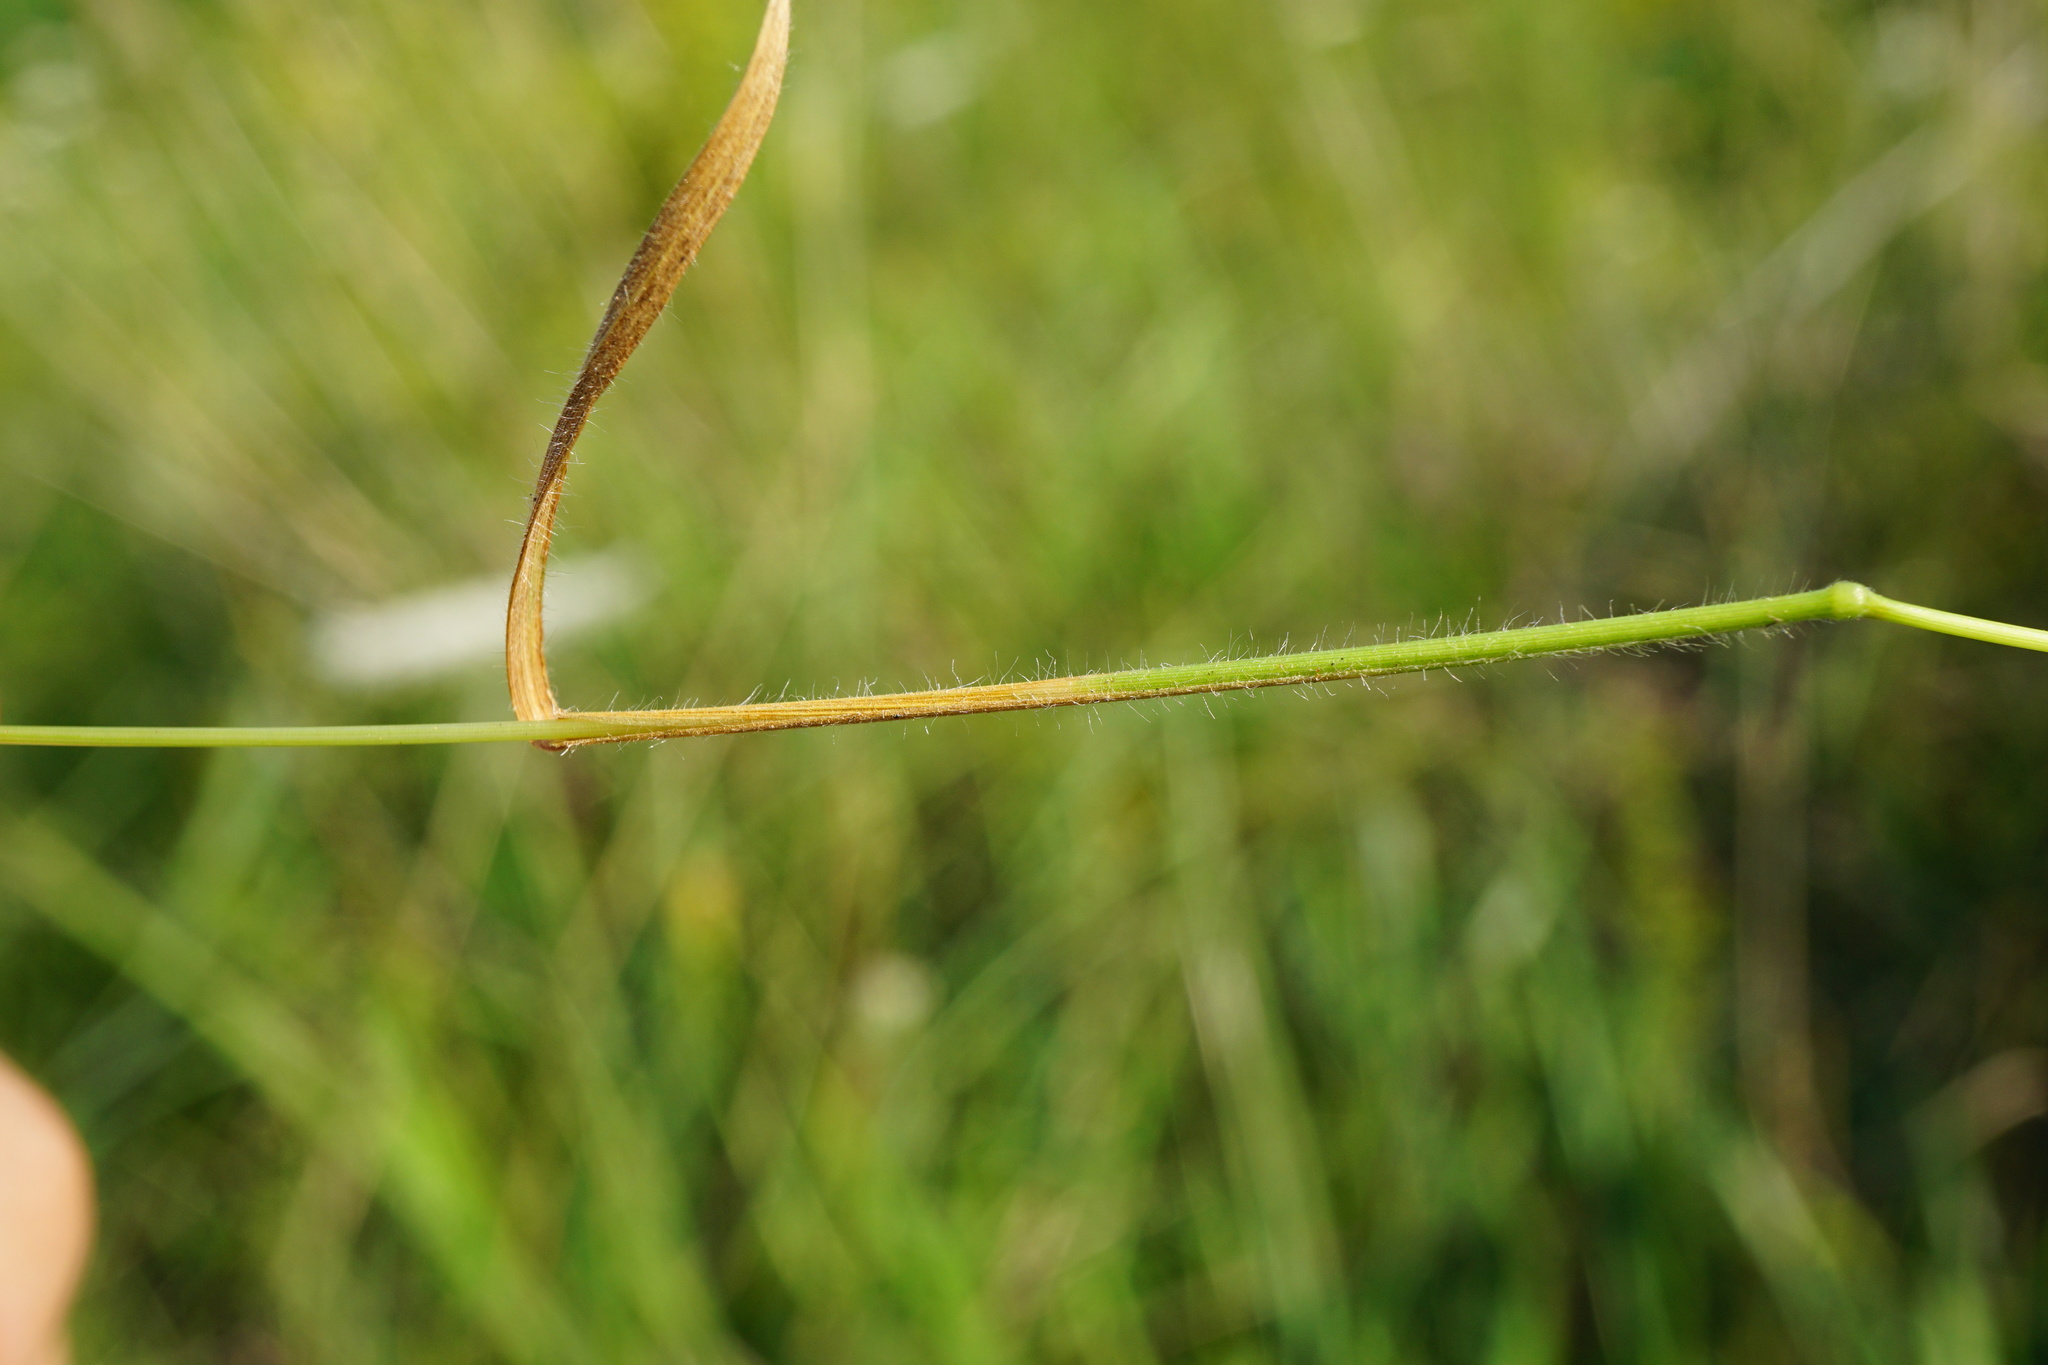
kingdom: Plantae
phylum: Tracheophyta
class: Liliopsida
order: Poales
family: Poaceae
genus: Trisetum
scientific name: Trisetum flavescens
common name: Yellow oat-grass
